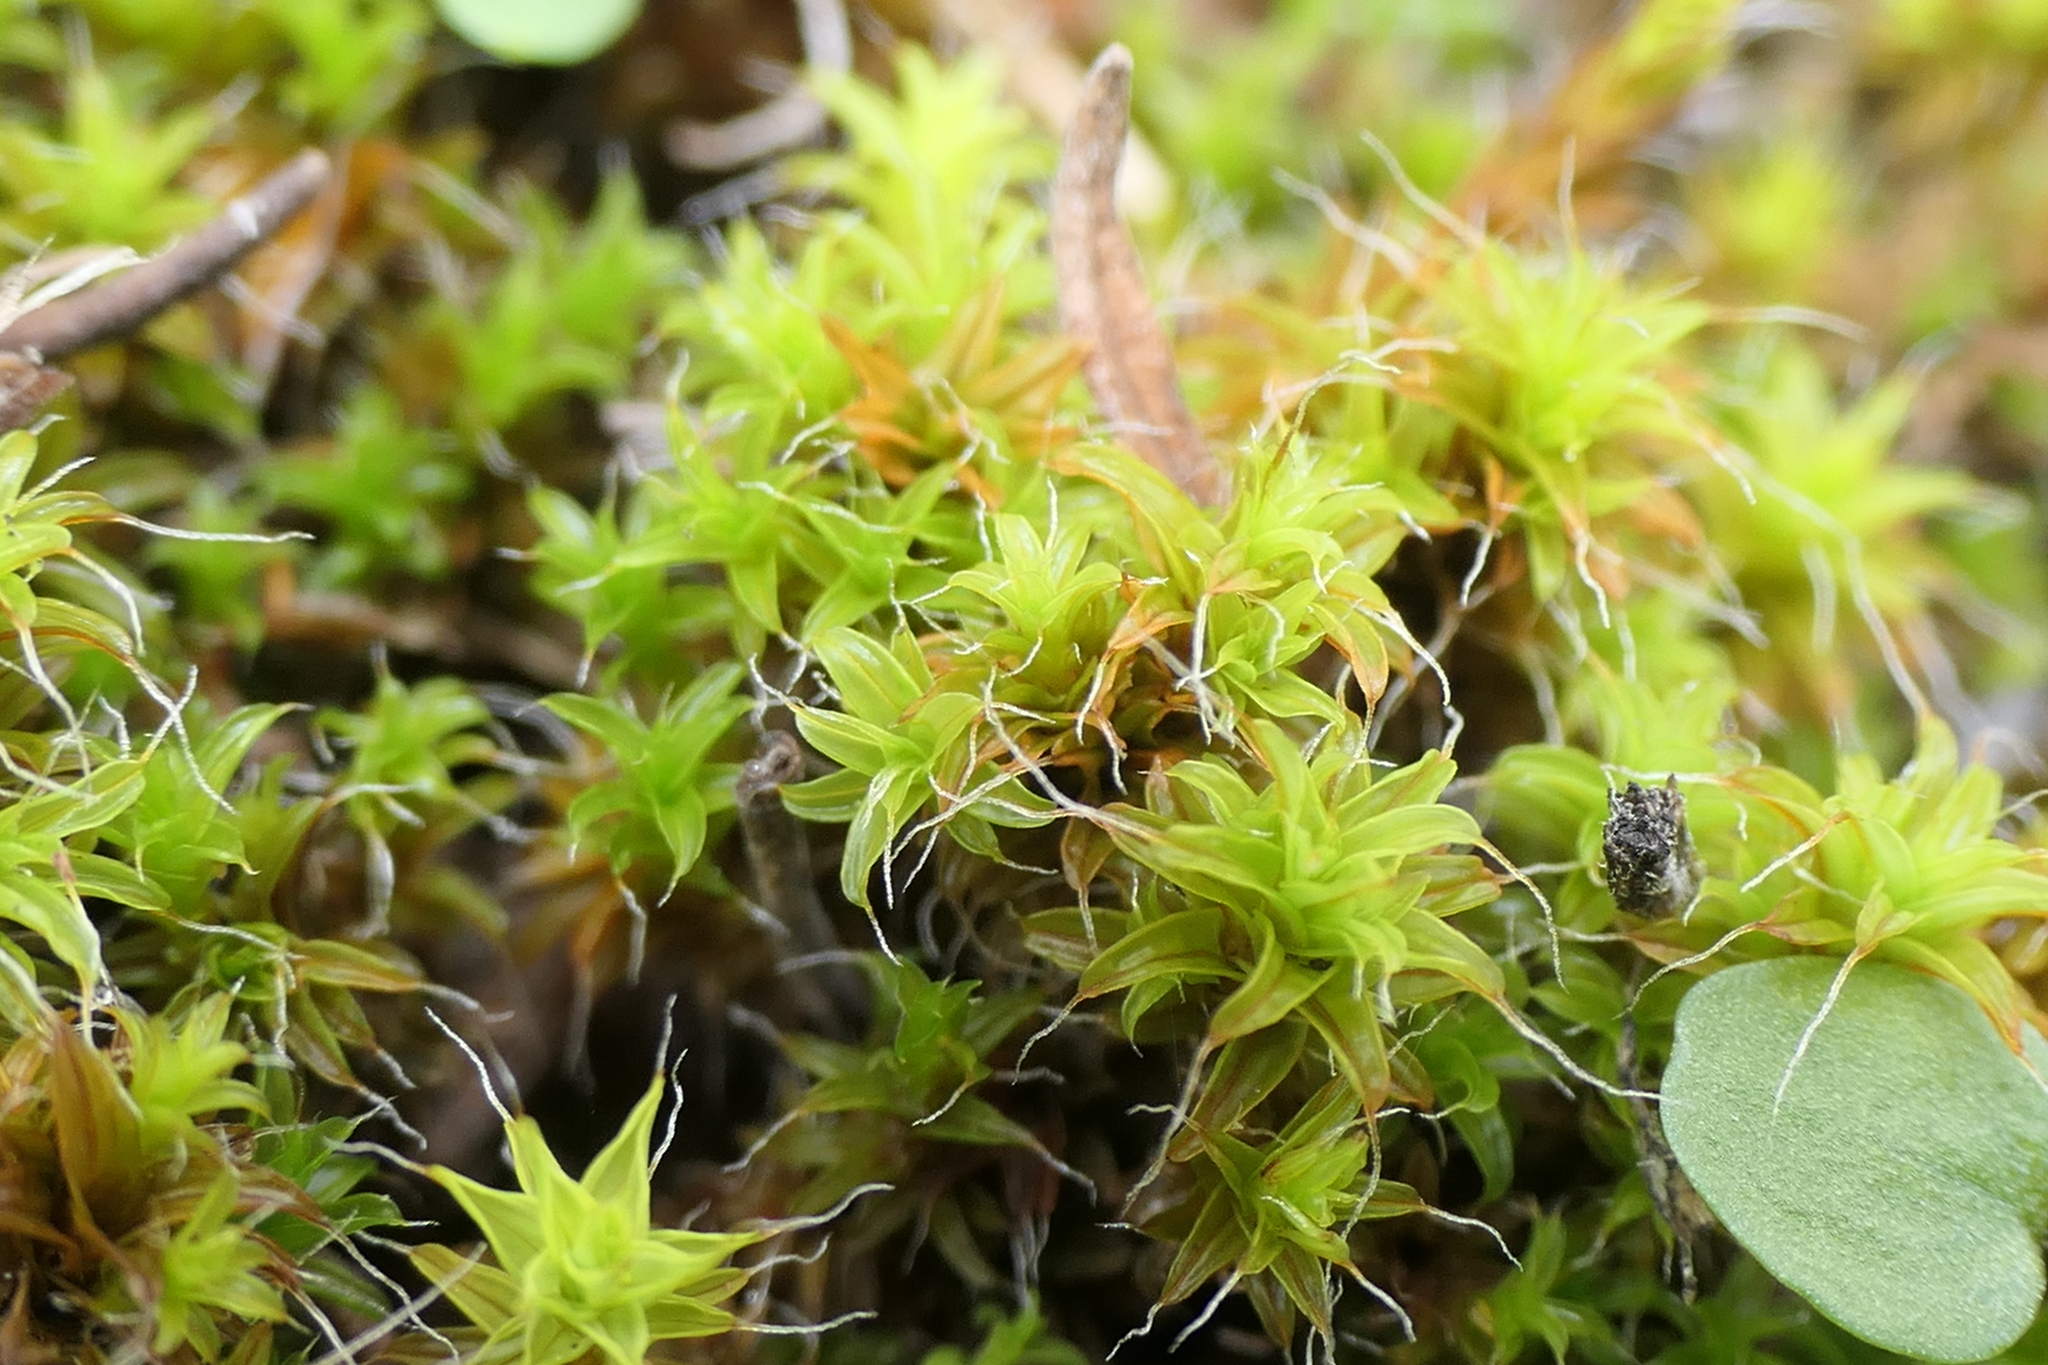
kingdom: Plantae
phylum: Bryophyta
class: Bryopsida
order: Pottiales
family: Pottiaceae
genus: Syntrichia
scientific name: Syntrichia ruralis
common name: Sidewalk screw moss
